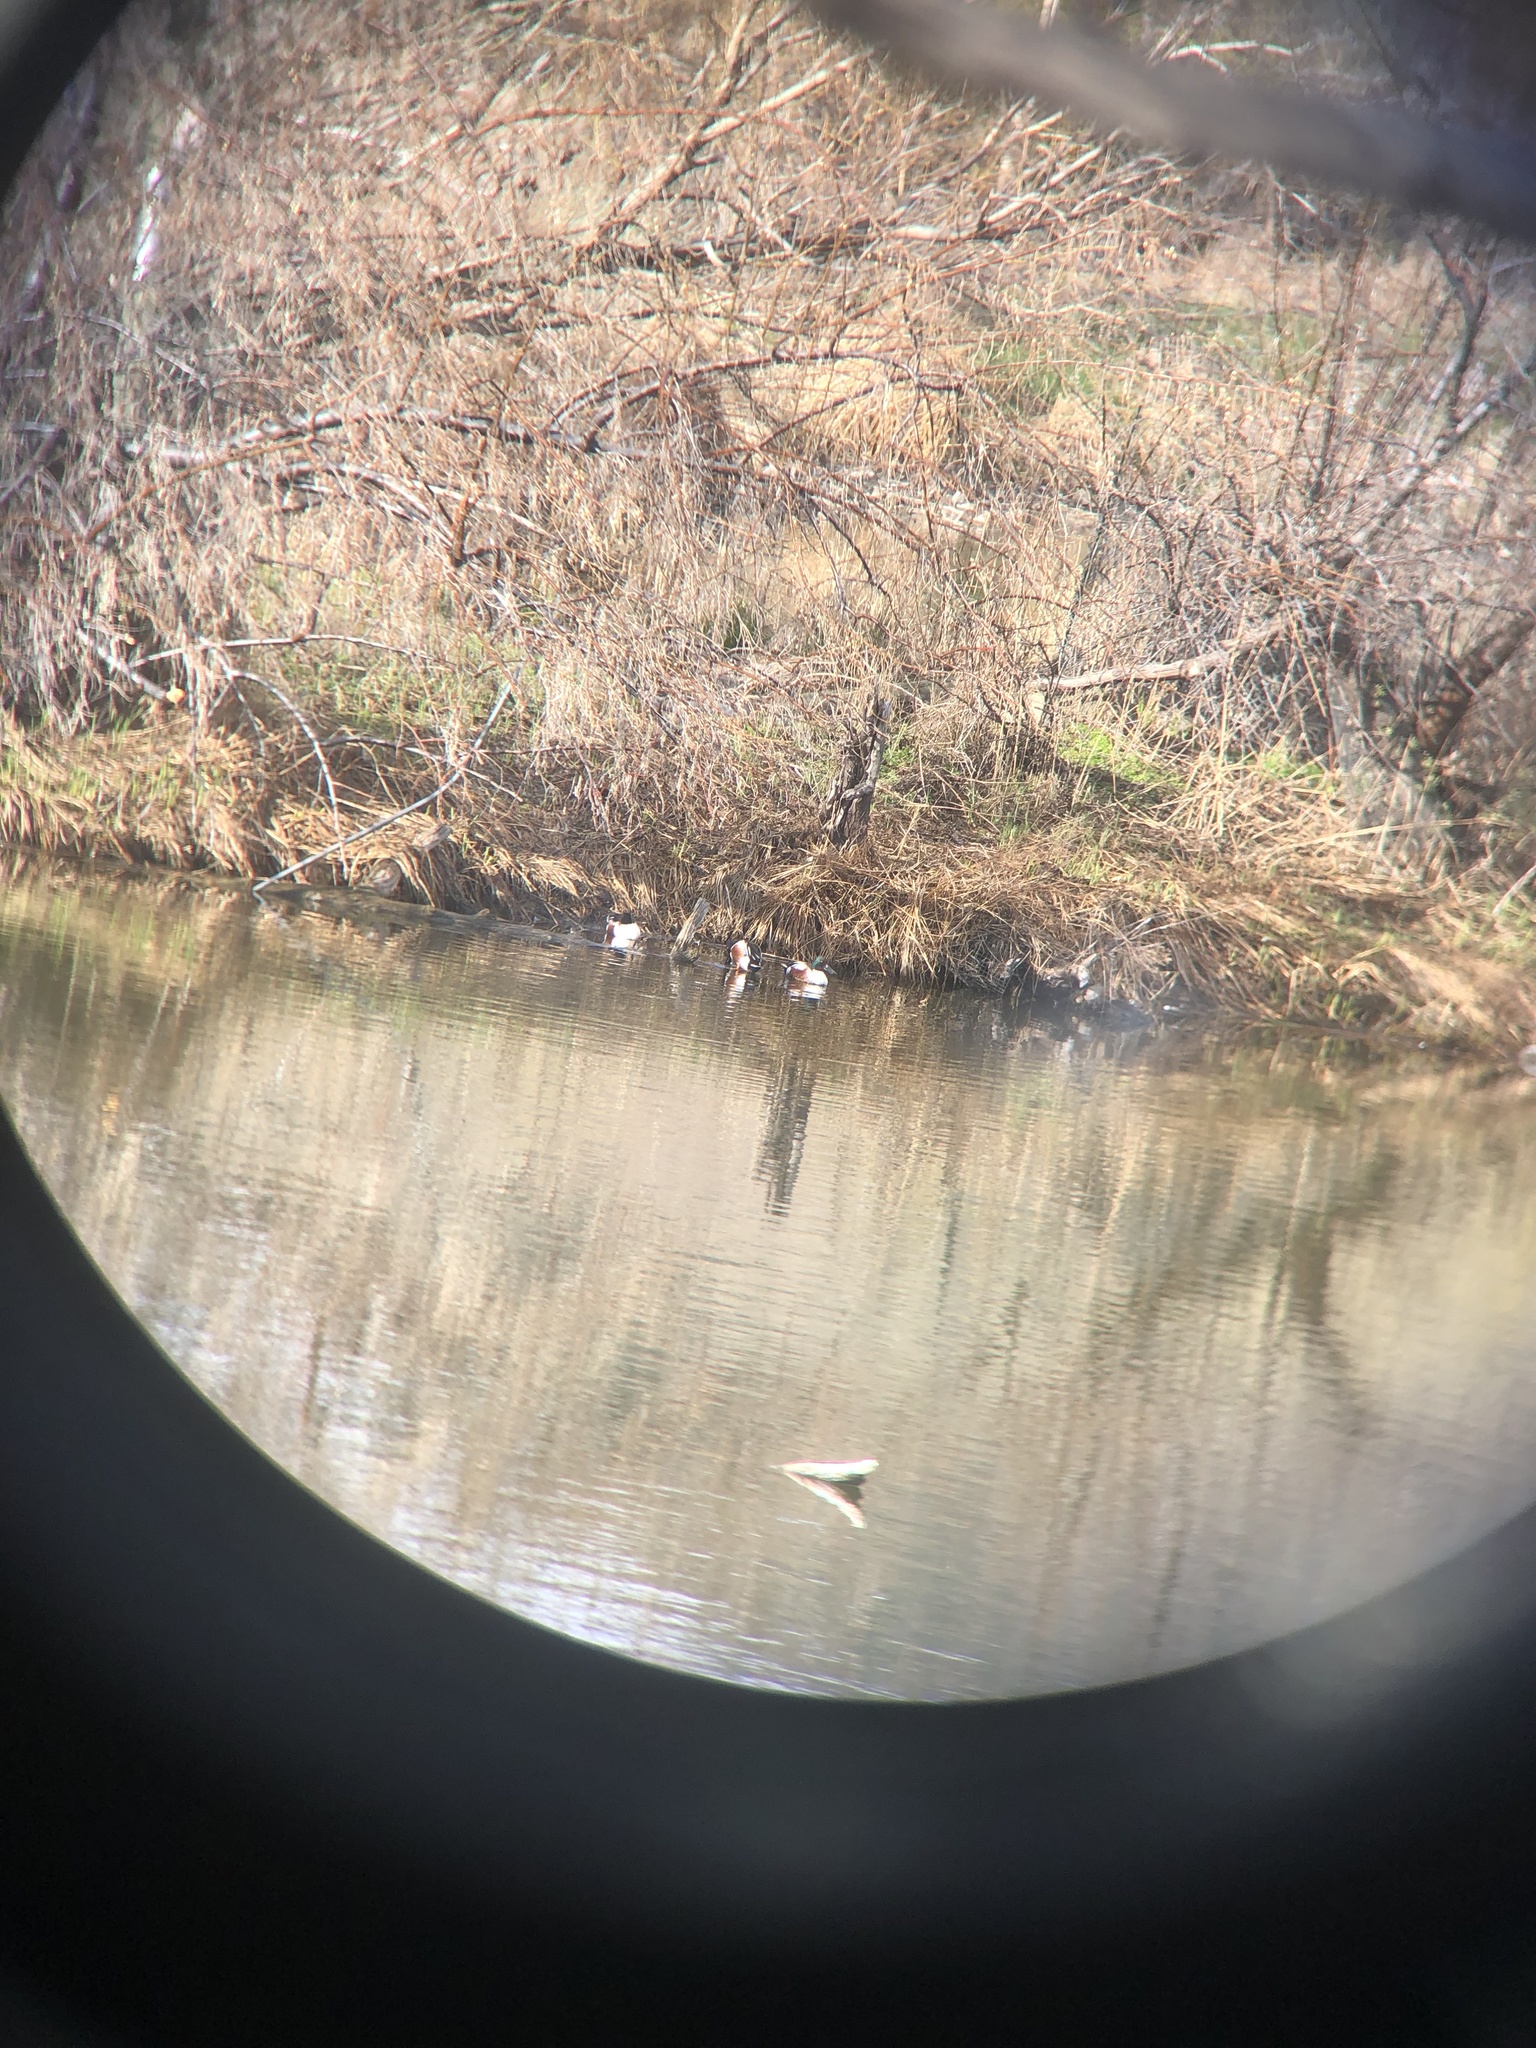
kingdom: Animalia
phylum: Chordata
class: Aves
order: Anseriformes
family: Anatidae
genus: Spatula
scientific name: Spatula clypeata
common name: Northern shoveler
